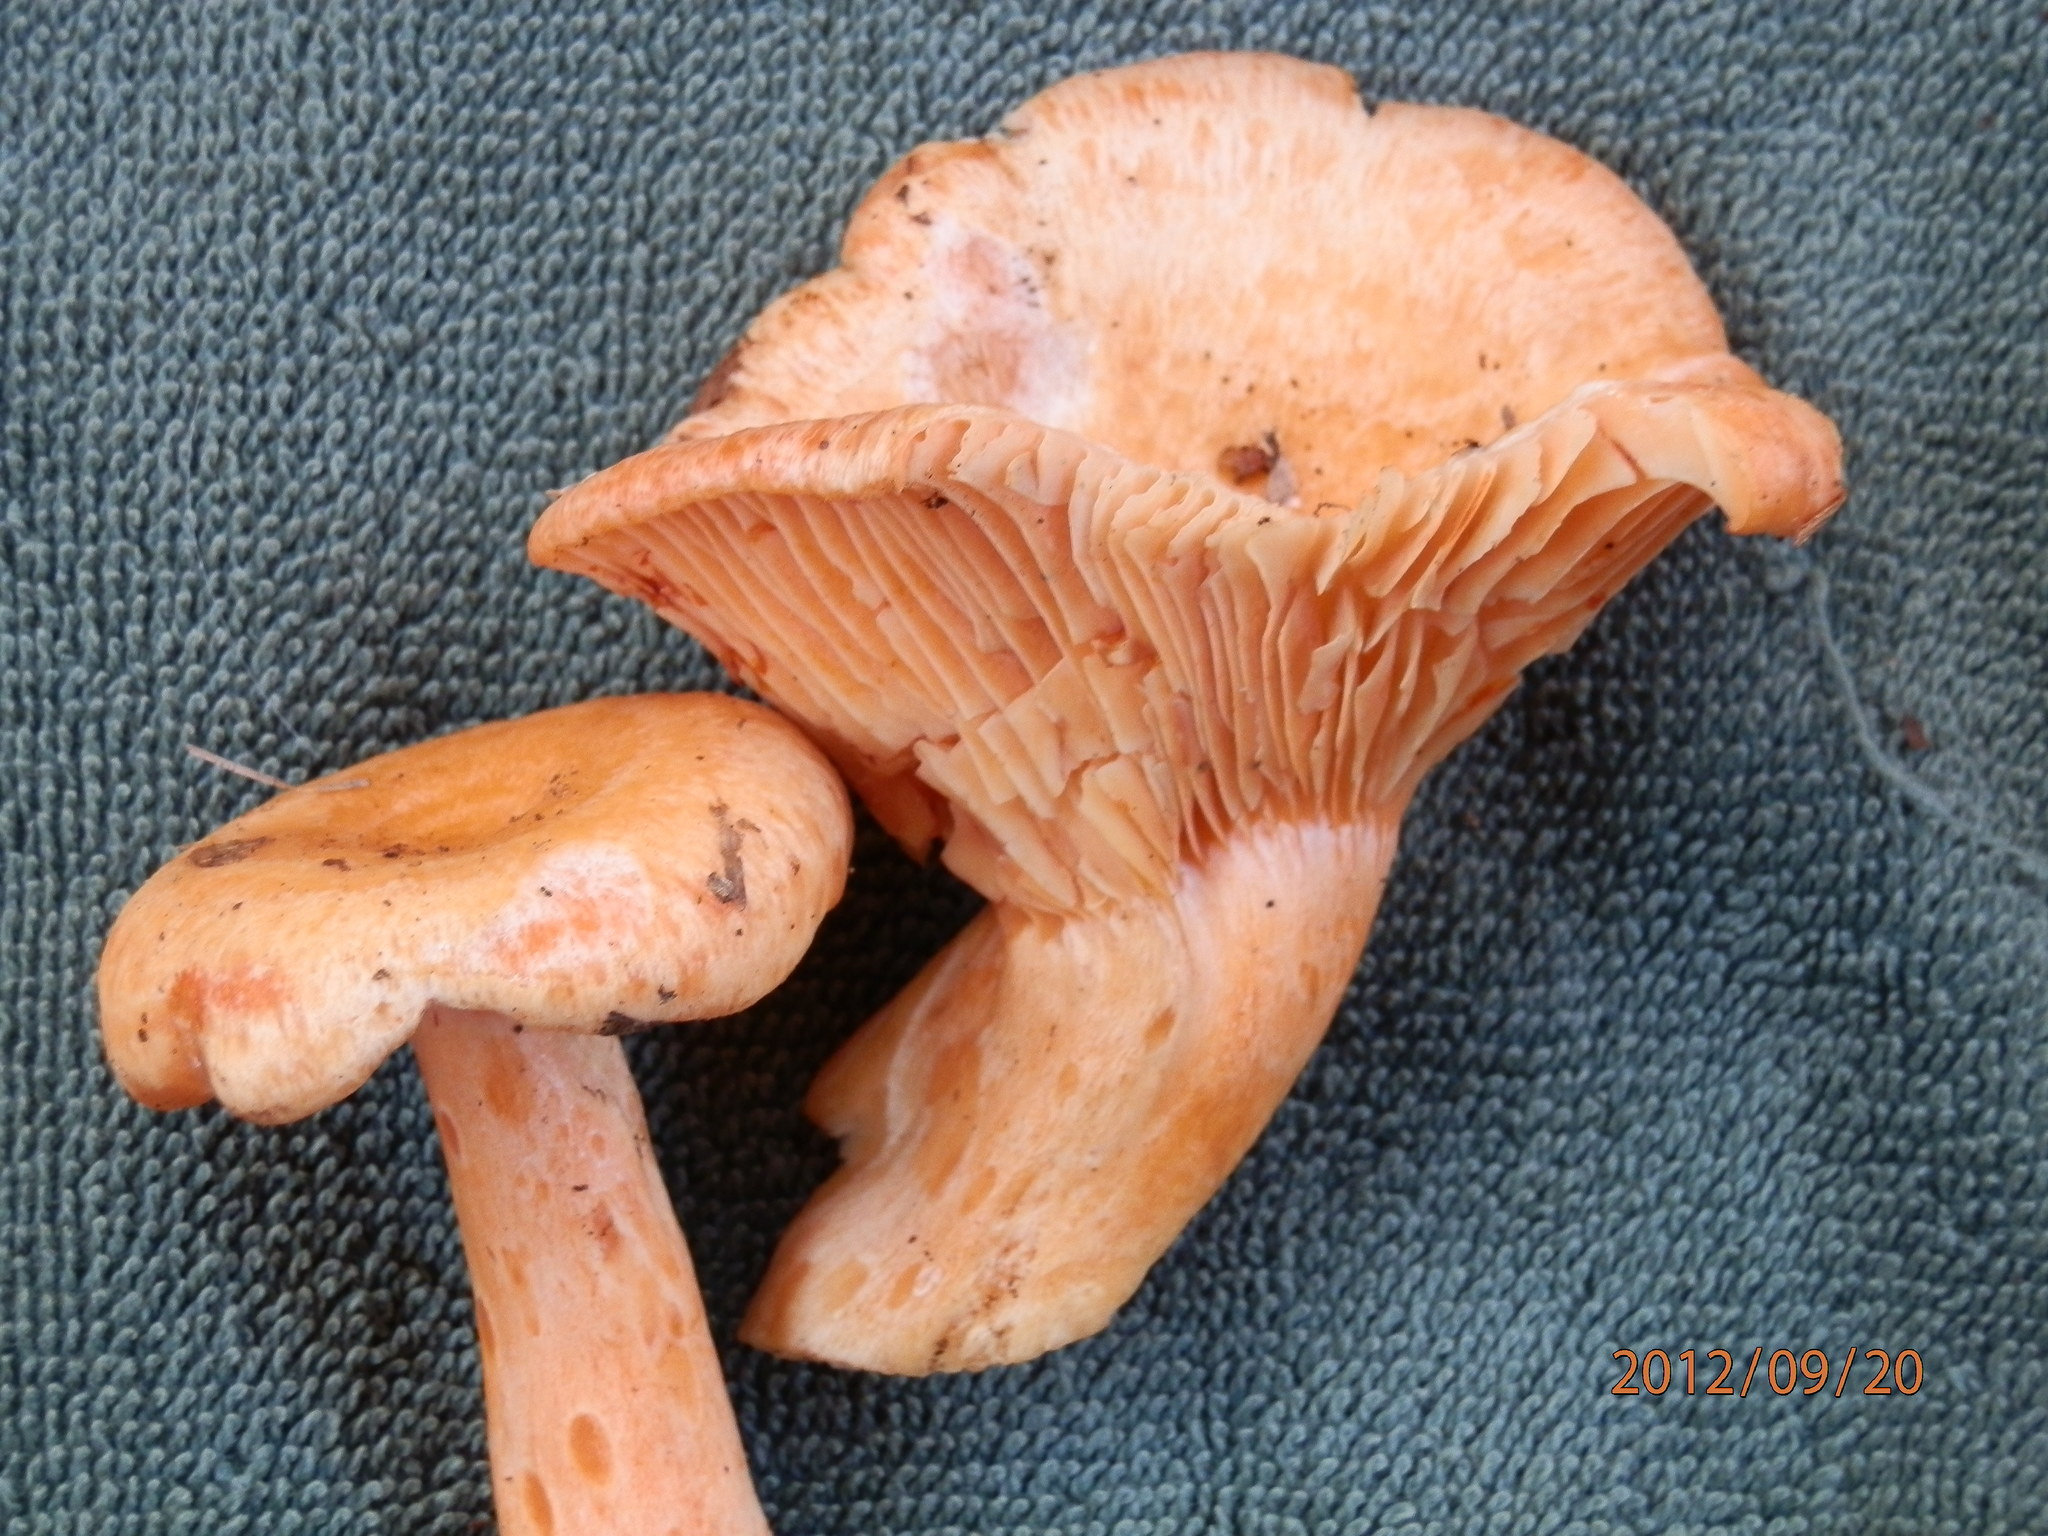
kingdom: Fungi
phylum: Basidiomycota
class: Agaricomycetes
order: Russulales
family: Russulaceae
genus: Lactarius
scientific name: Lactarius salmonicolor
